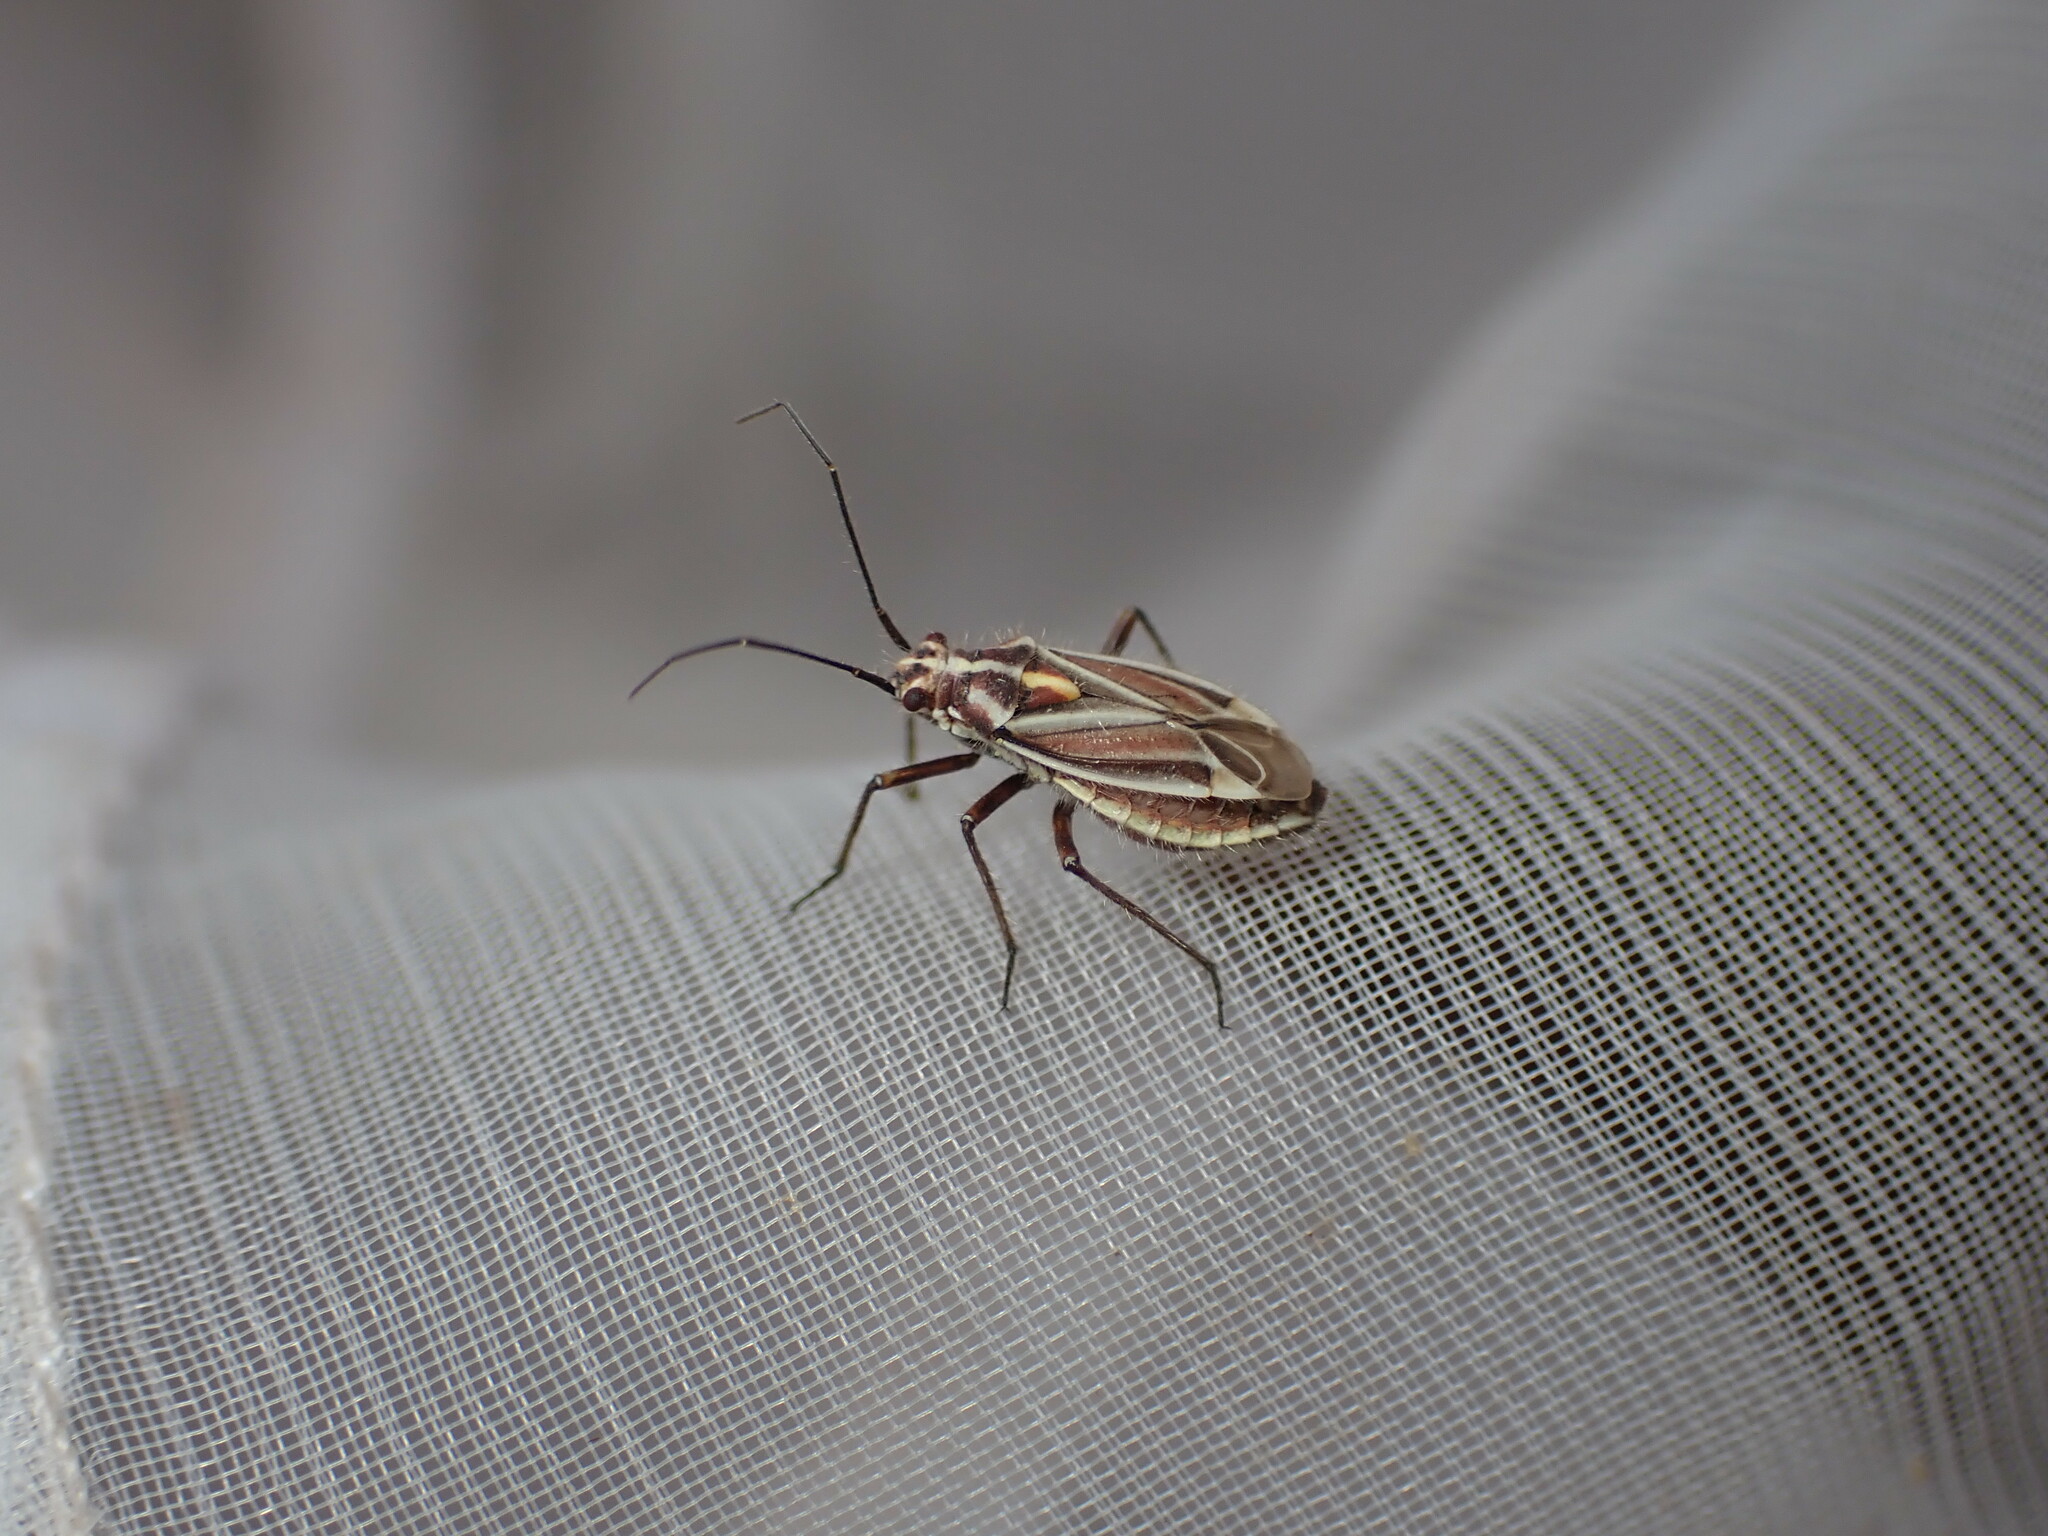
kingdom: Animalia
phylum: Arthropoda
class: Insecta
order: Hemiptera
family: Miridae
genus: Horistus
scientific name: Horistus orientalis
